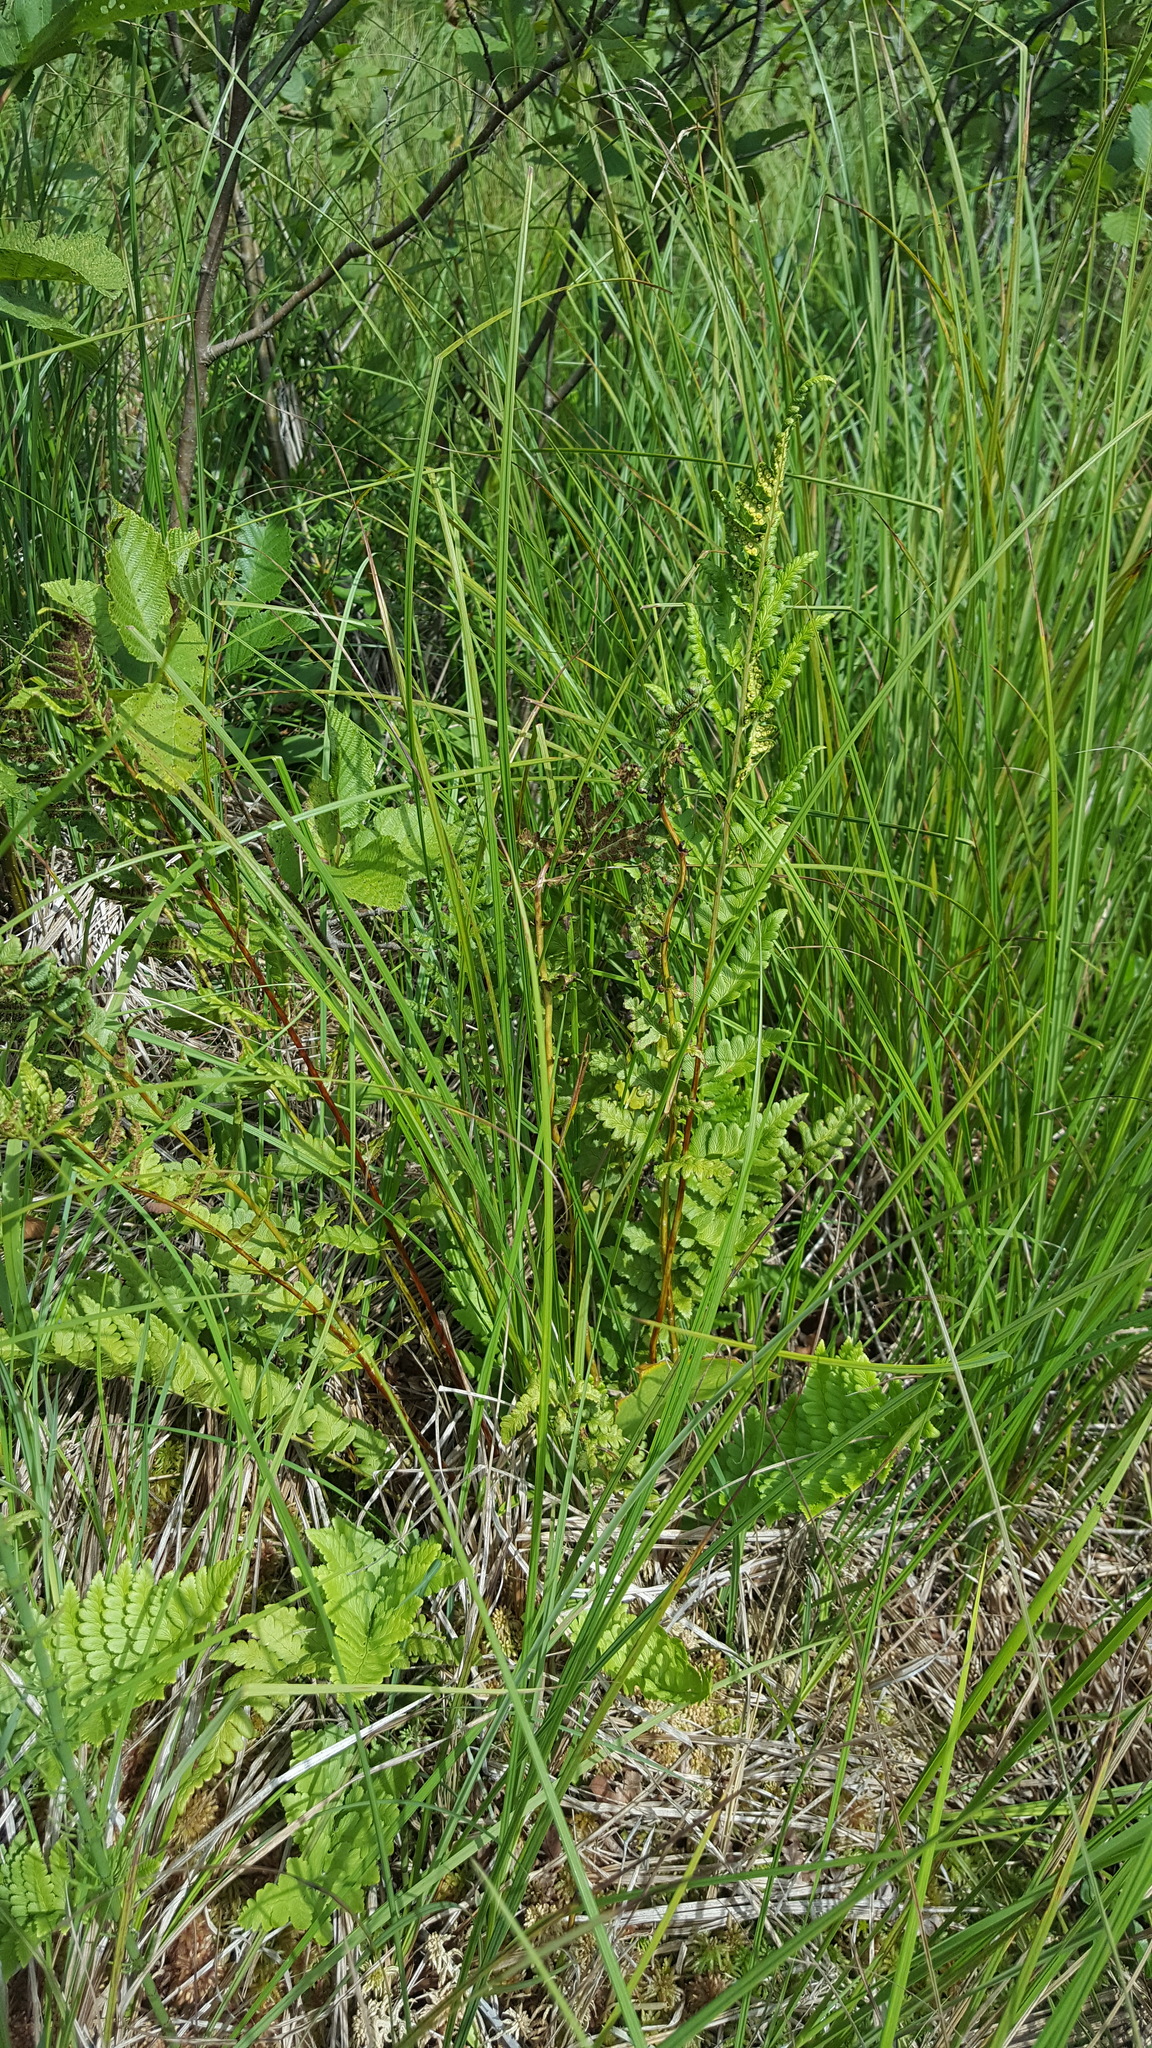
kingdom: Plantae
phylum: Tracheophyta
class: Polypodiopsida
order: Polypodiales
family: Dryopteridaceae
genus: Dryopteris
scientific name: Dryopteris cristata
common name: Crested wood fern
